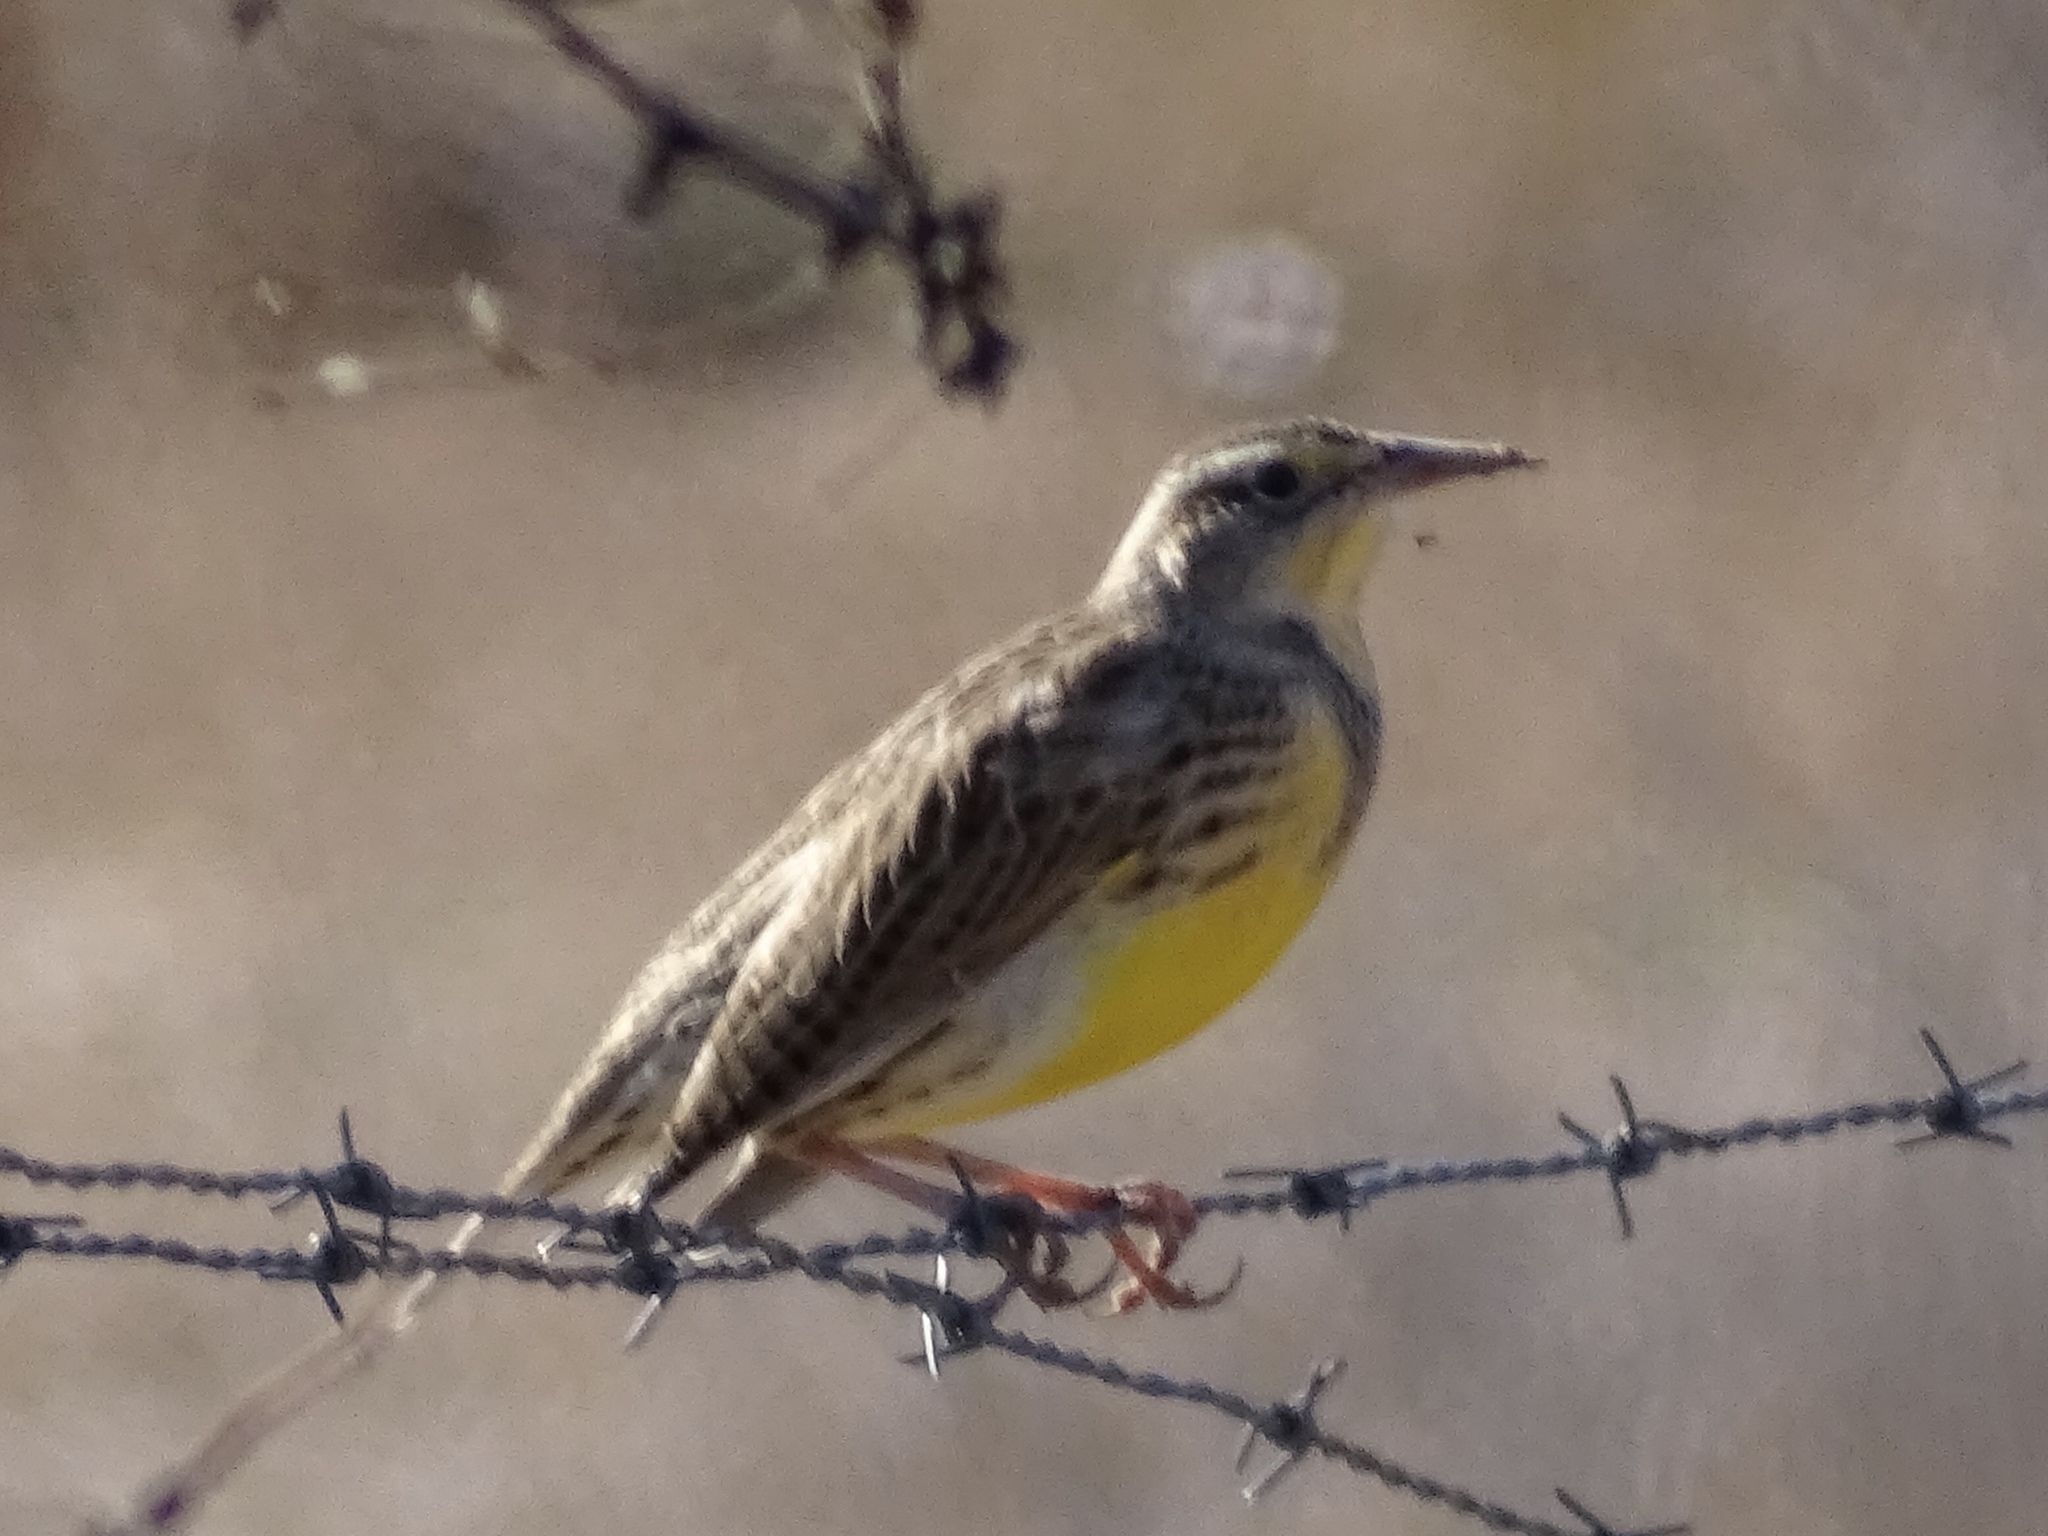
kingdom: Animalia
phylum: Chordata
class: Aves
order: Passeriformes
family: Icteridae
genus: Sturnella
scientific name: Sturnella neglecta
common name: Western meadowlark
